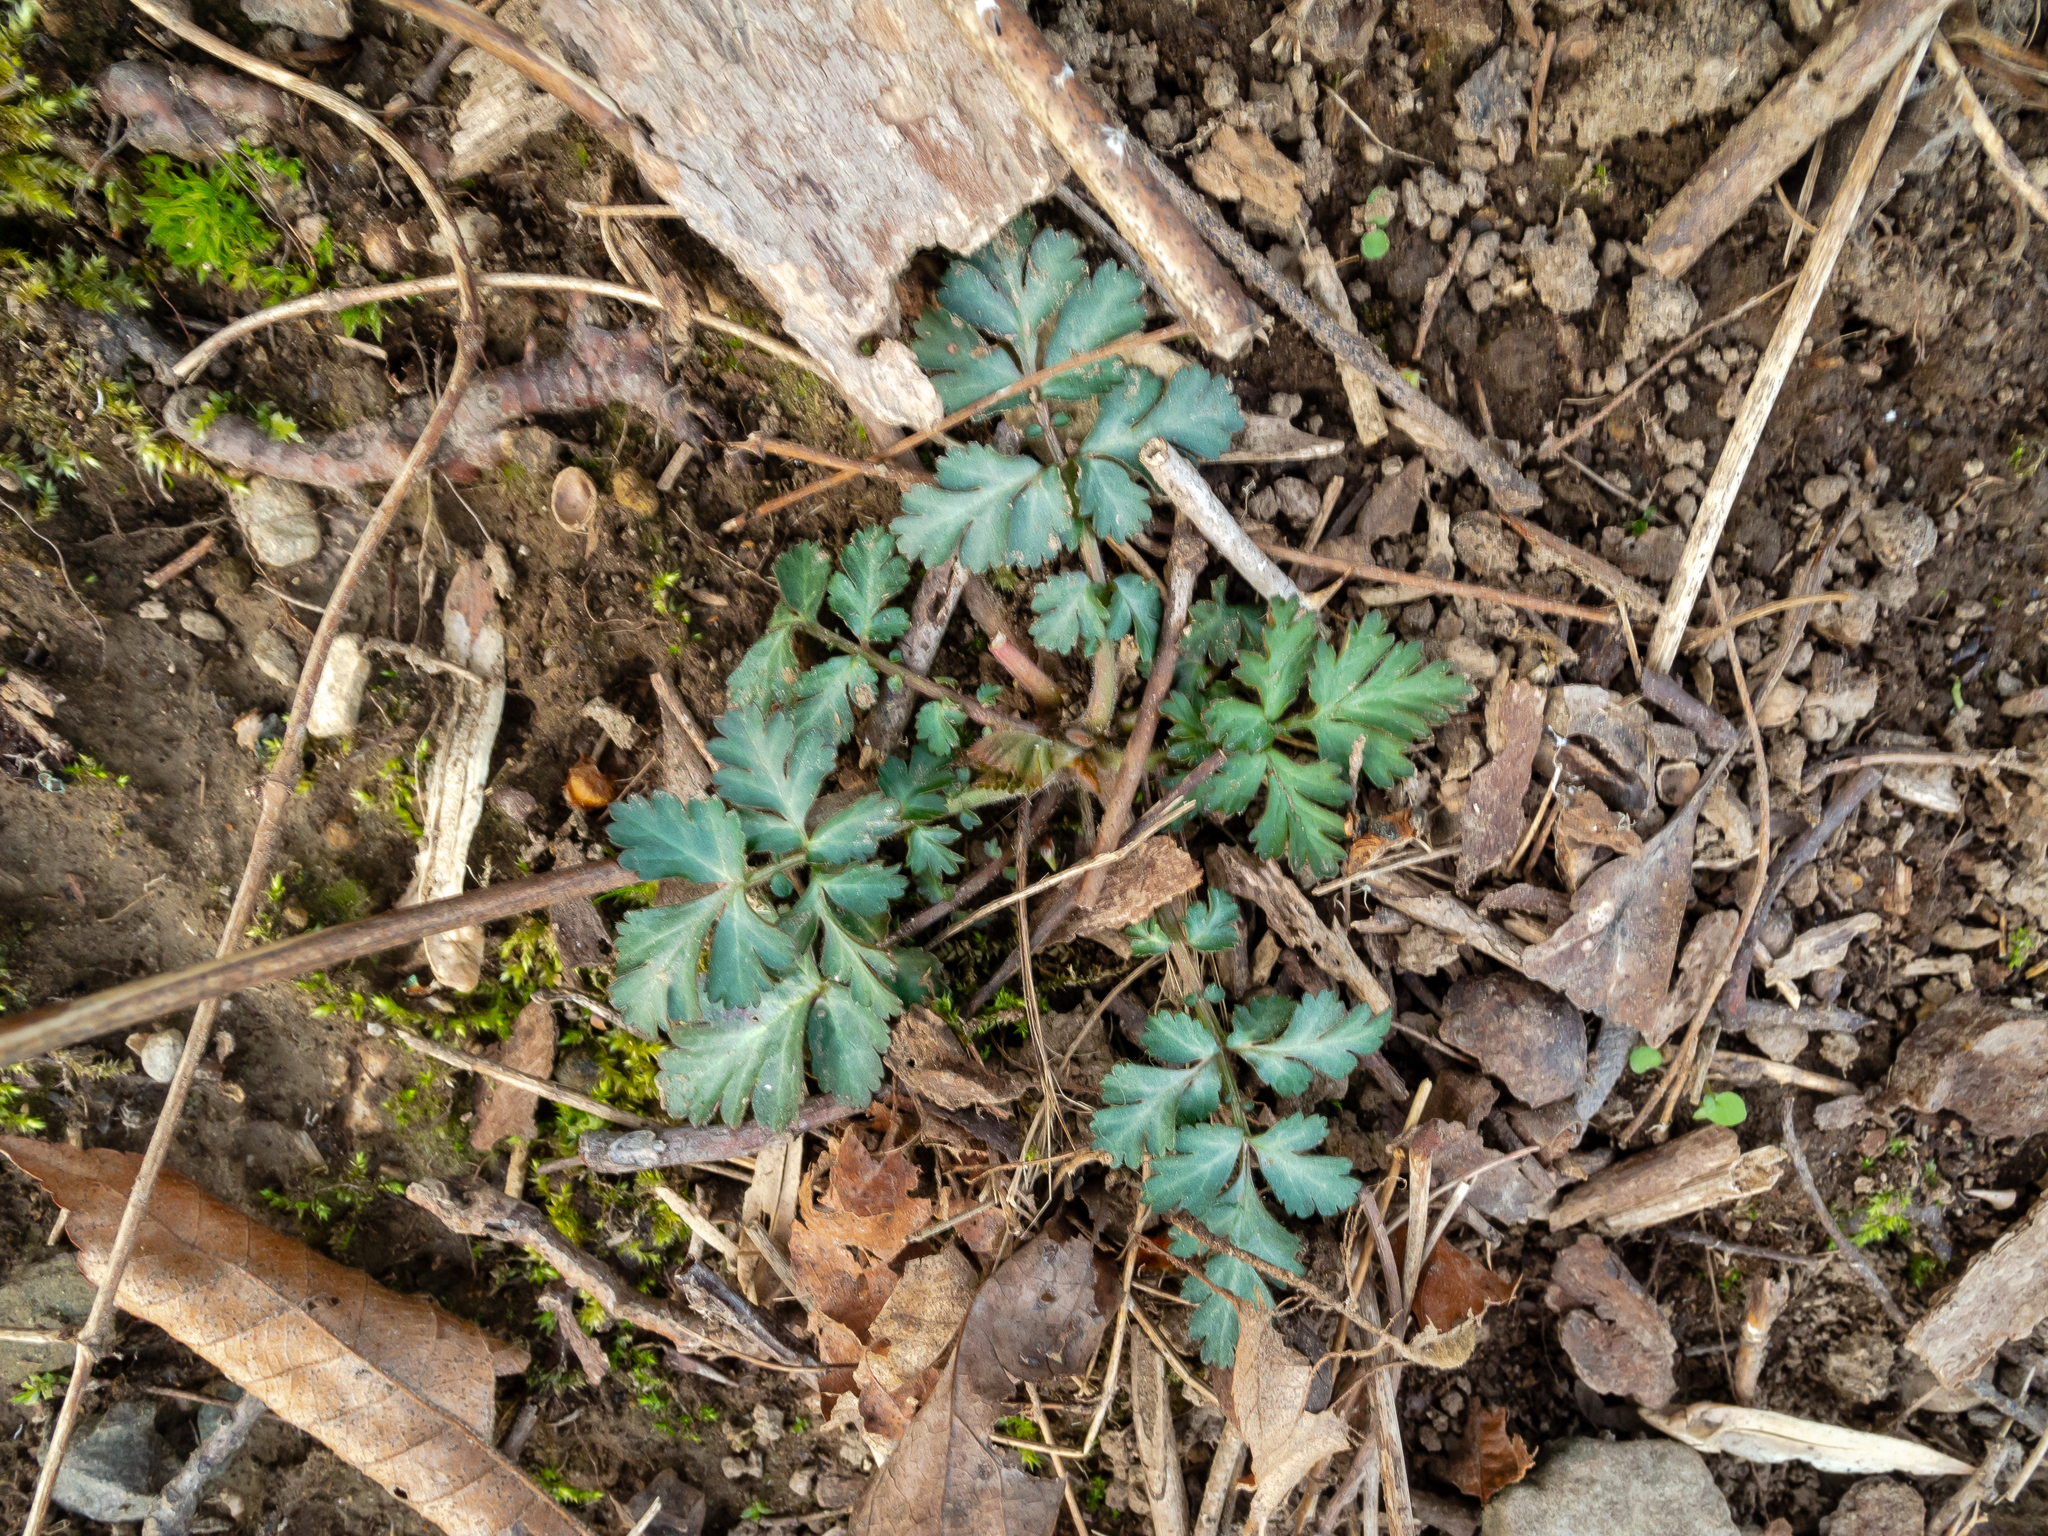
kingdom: Plantae
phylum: Tracheophyta
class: Magnoliopsida
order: Rosales
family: Rosaceae
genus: Geum
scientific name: Geum canadense
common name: White avens
